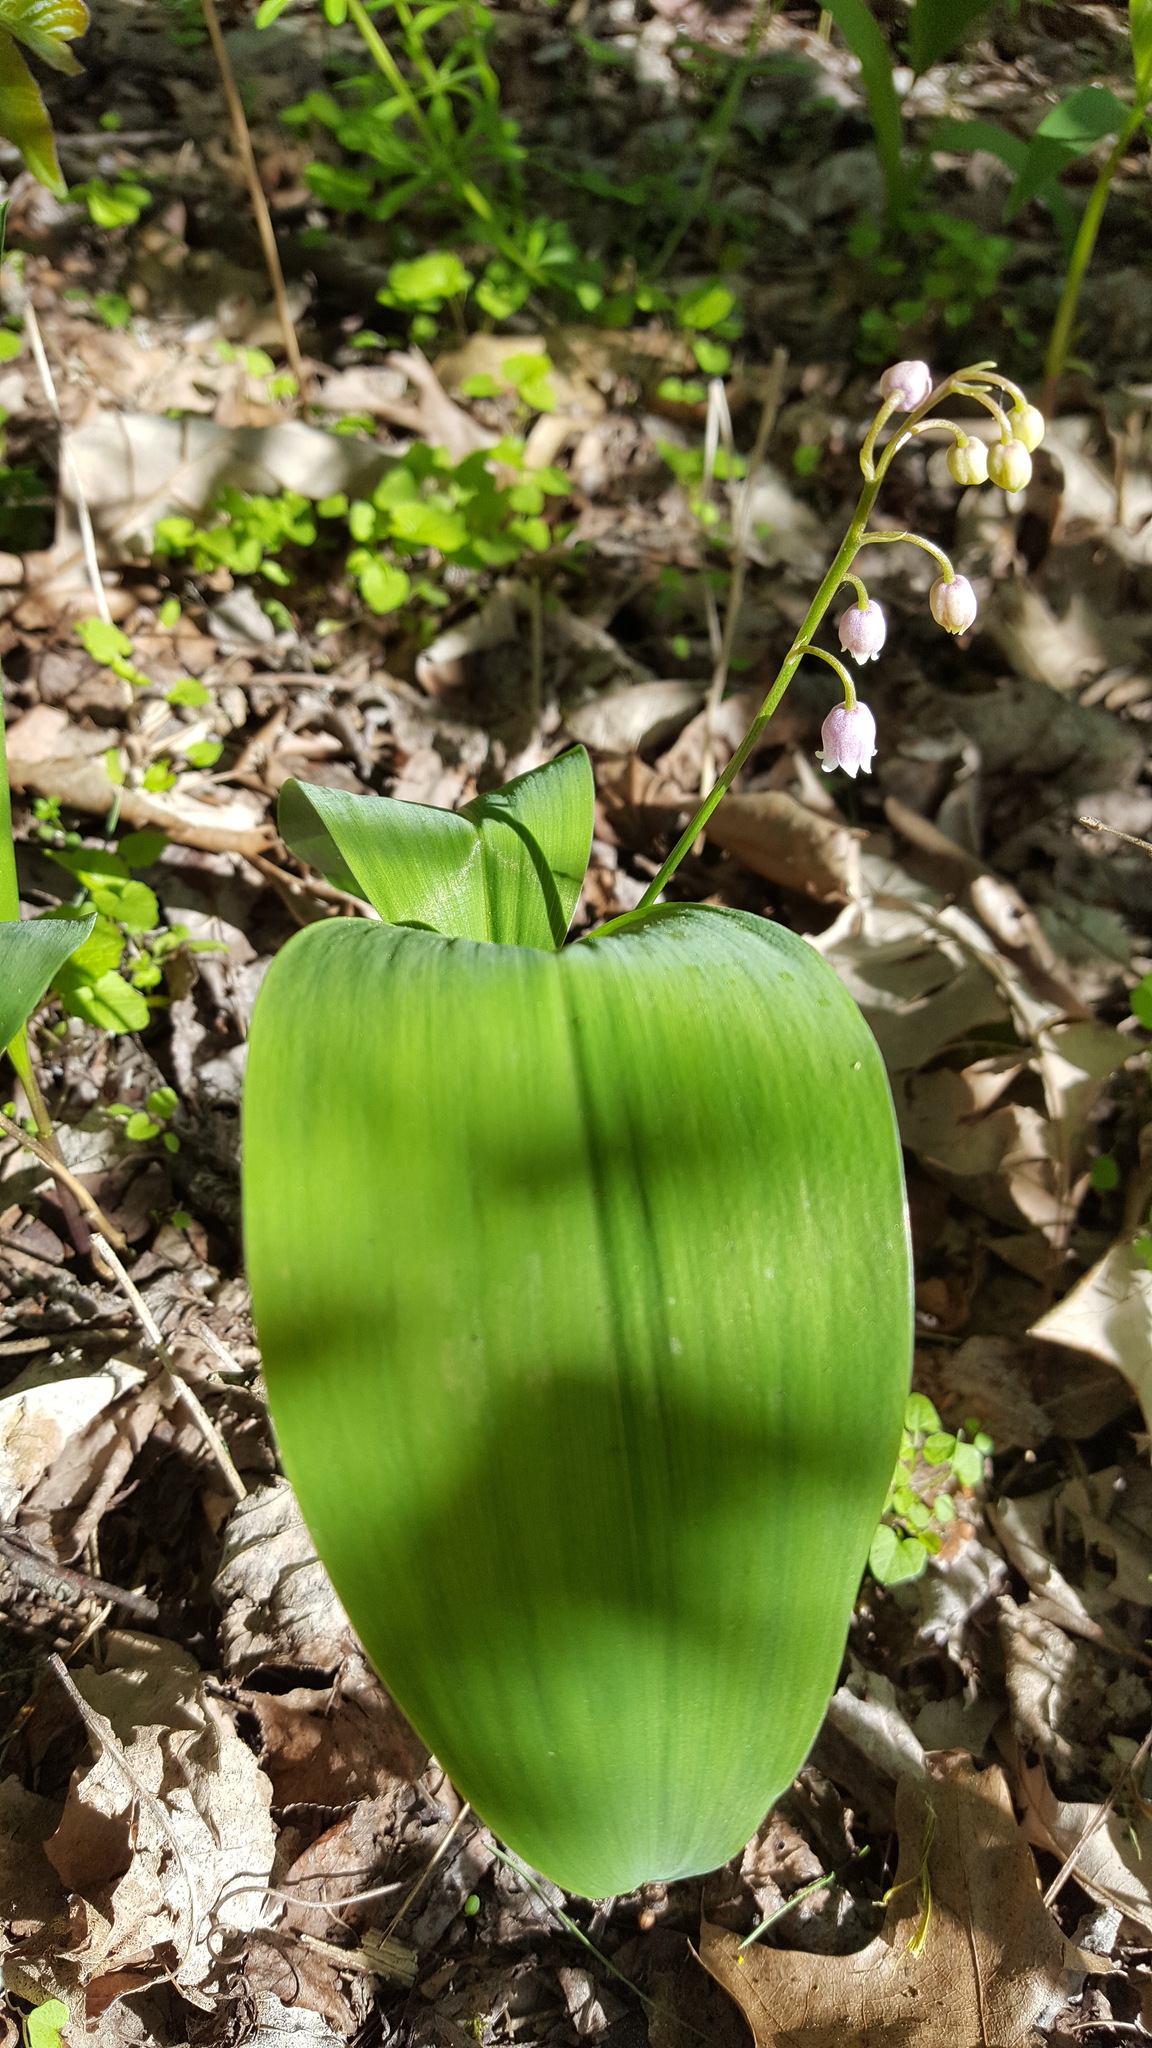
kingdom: Plantae
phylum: Tracheophyta
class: Liliopsida
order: Asparagales
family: Asparagaceae
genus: Convallaria
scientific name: Convallaria majalis
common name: Lily-of-the-valley
